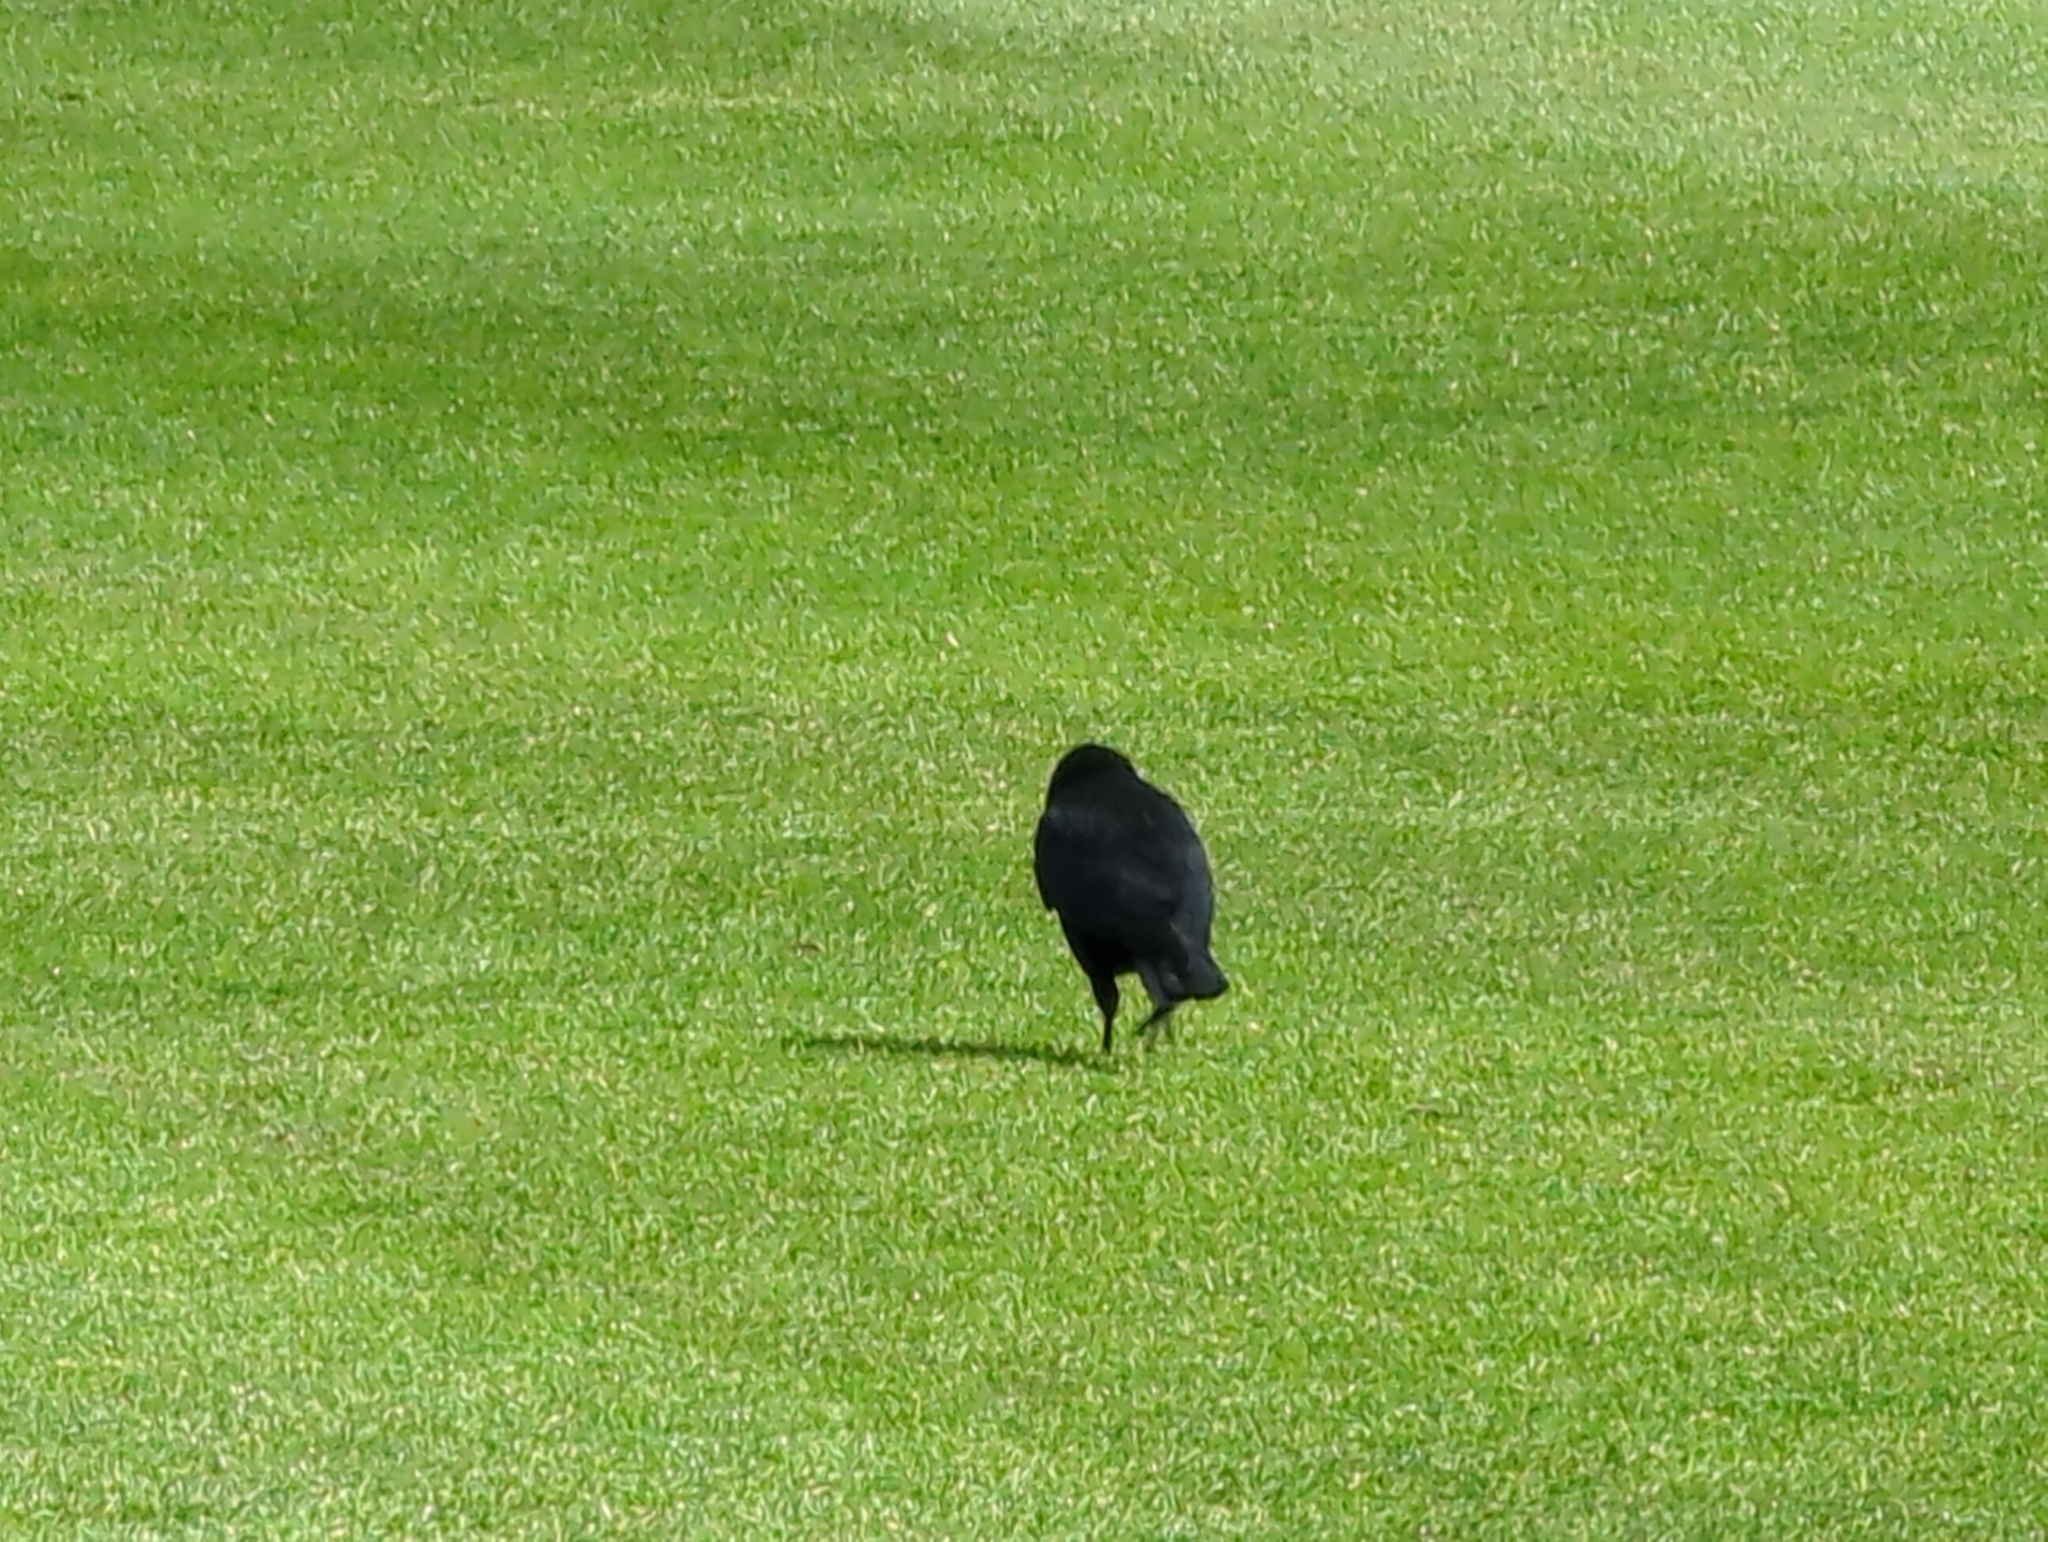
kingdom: Animalia
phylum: Chordata
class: Aves
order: Passeriformes
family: Corvidae
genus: Corvus
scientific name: Corvus corone
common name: Carrion crow
